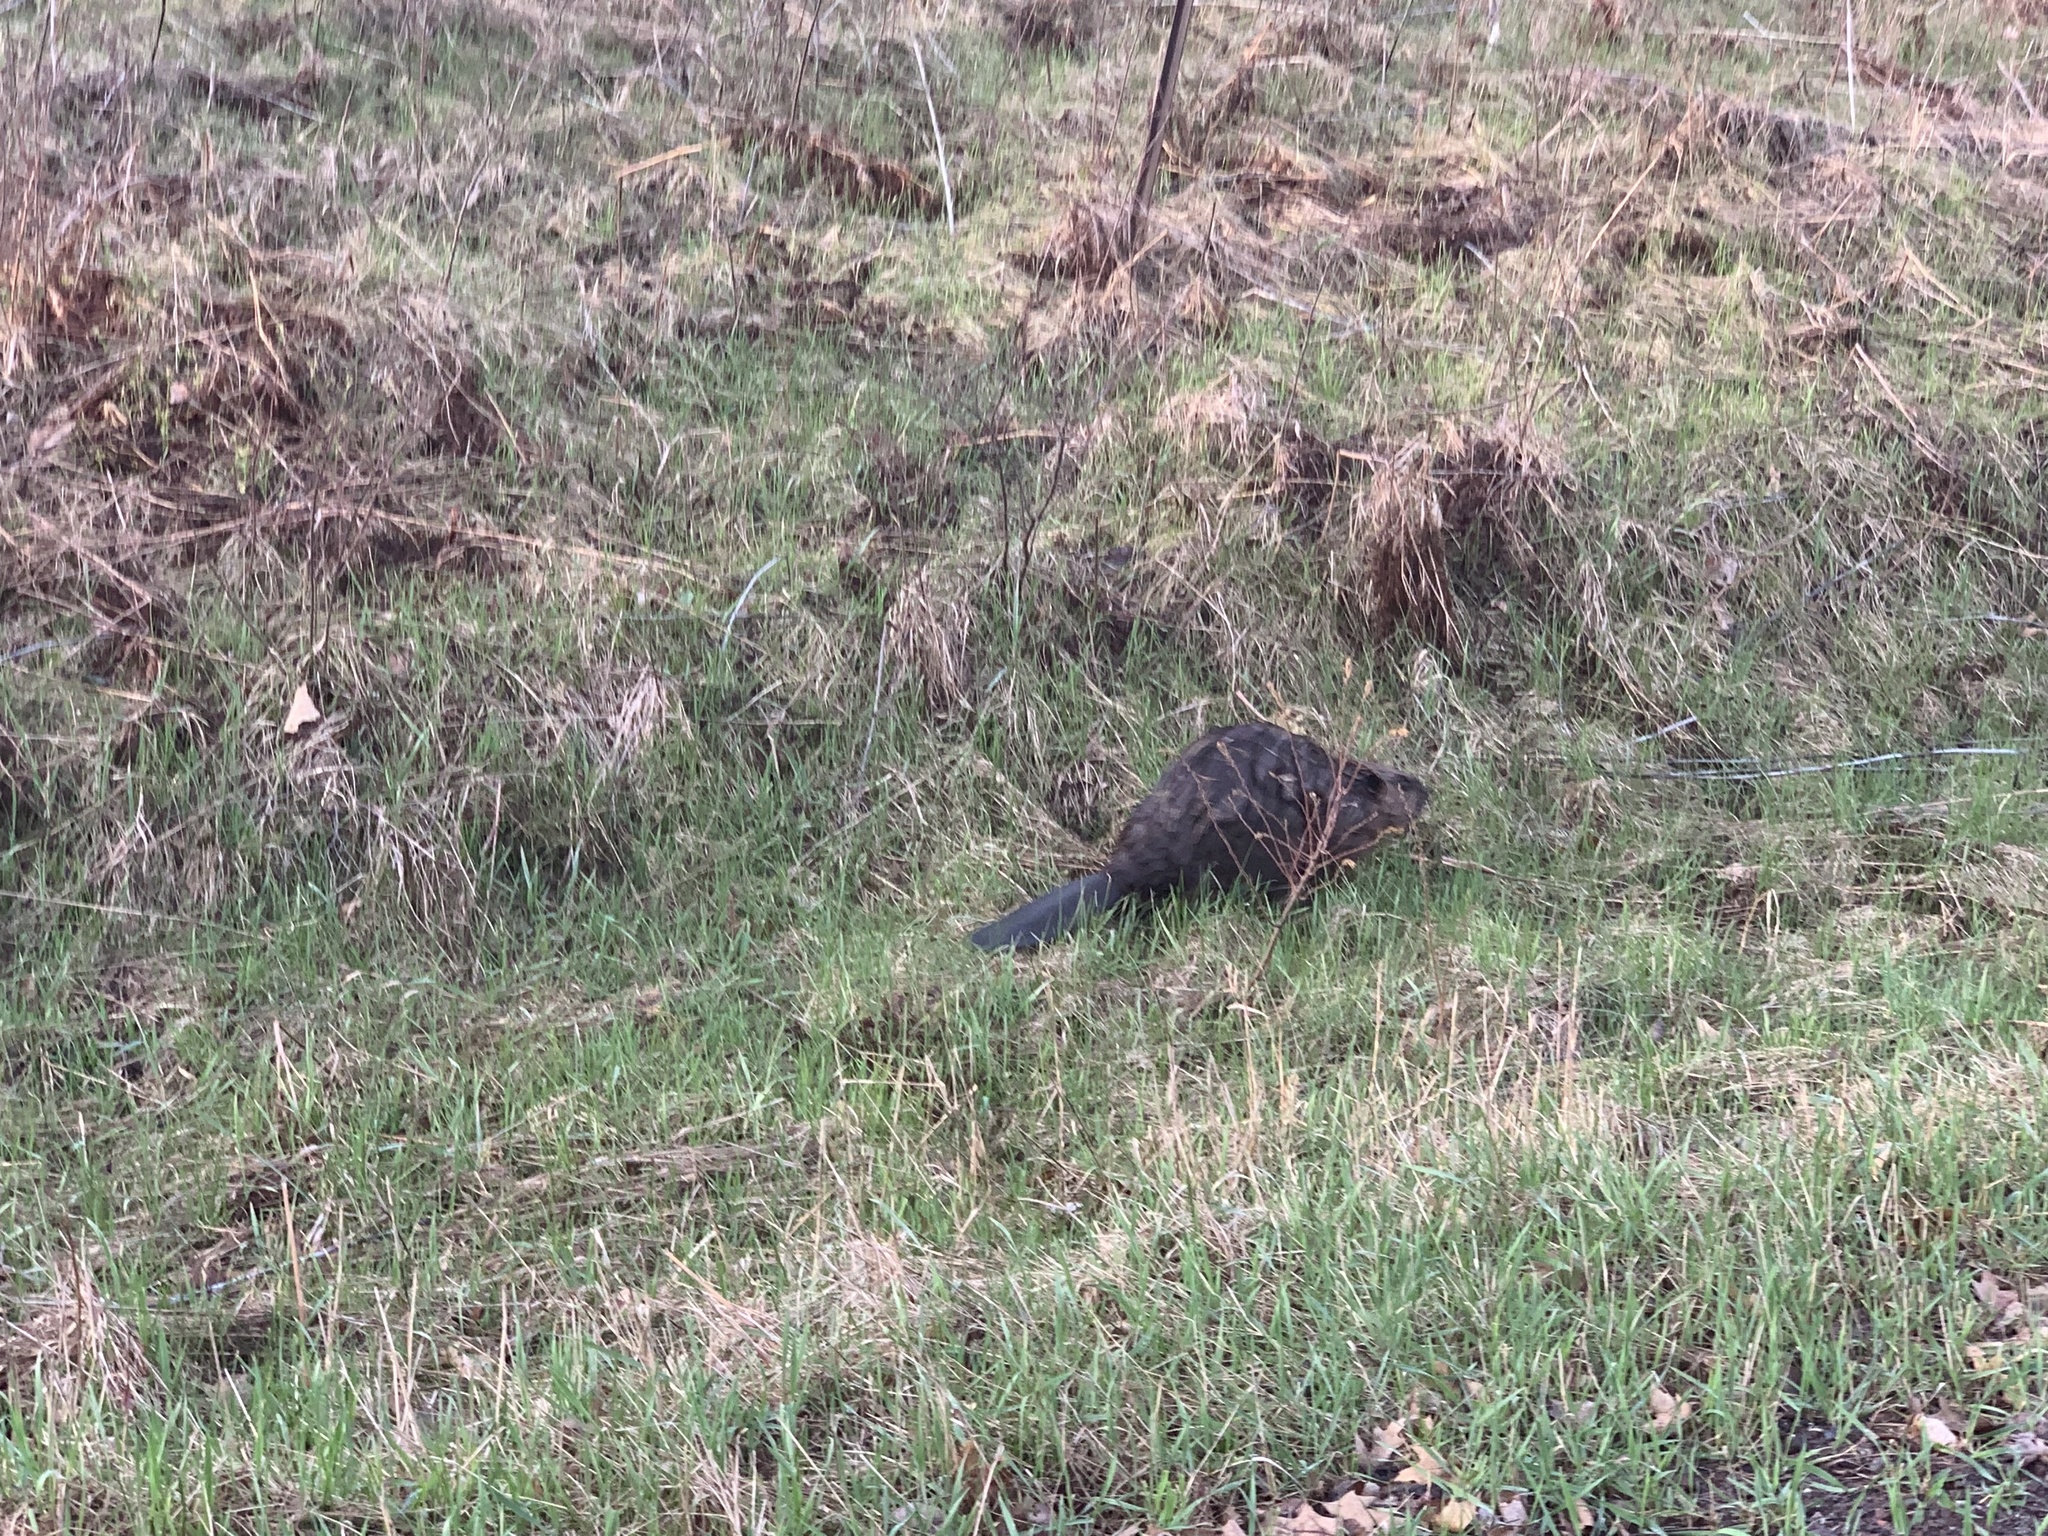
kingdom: Animalia
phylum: Chordata
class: Mammalia
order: Rodentia
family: Castoridae
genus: Castor
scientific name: Castor canadensis
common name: American beaver
